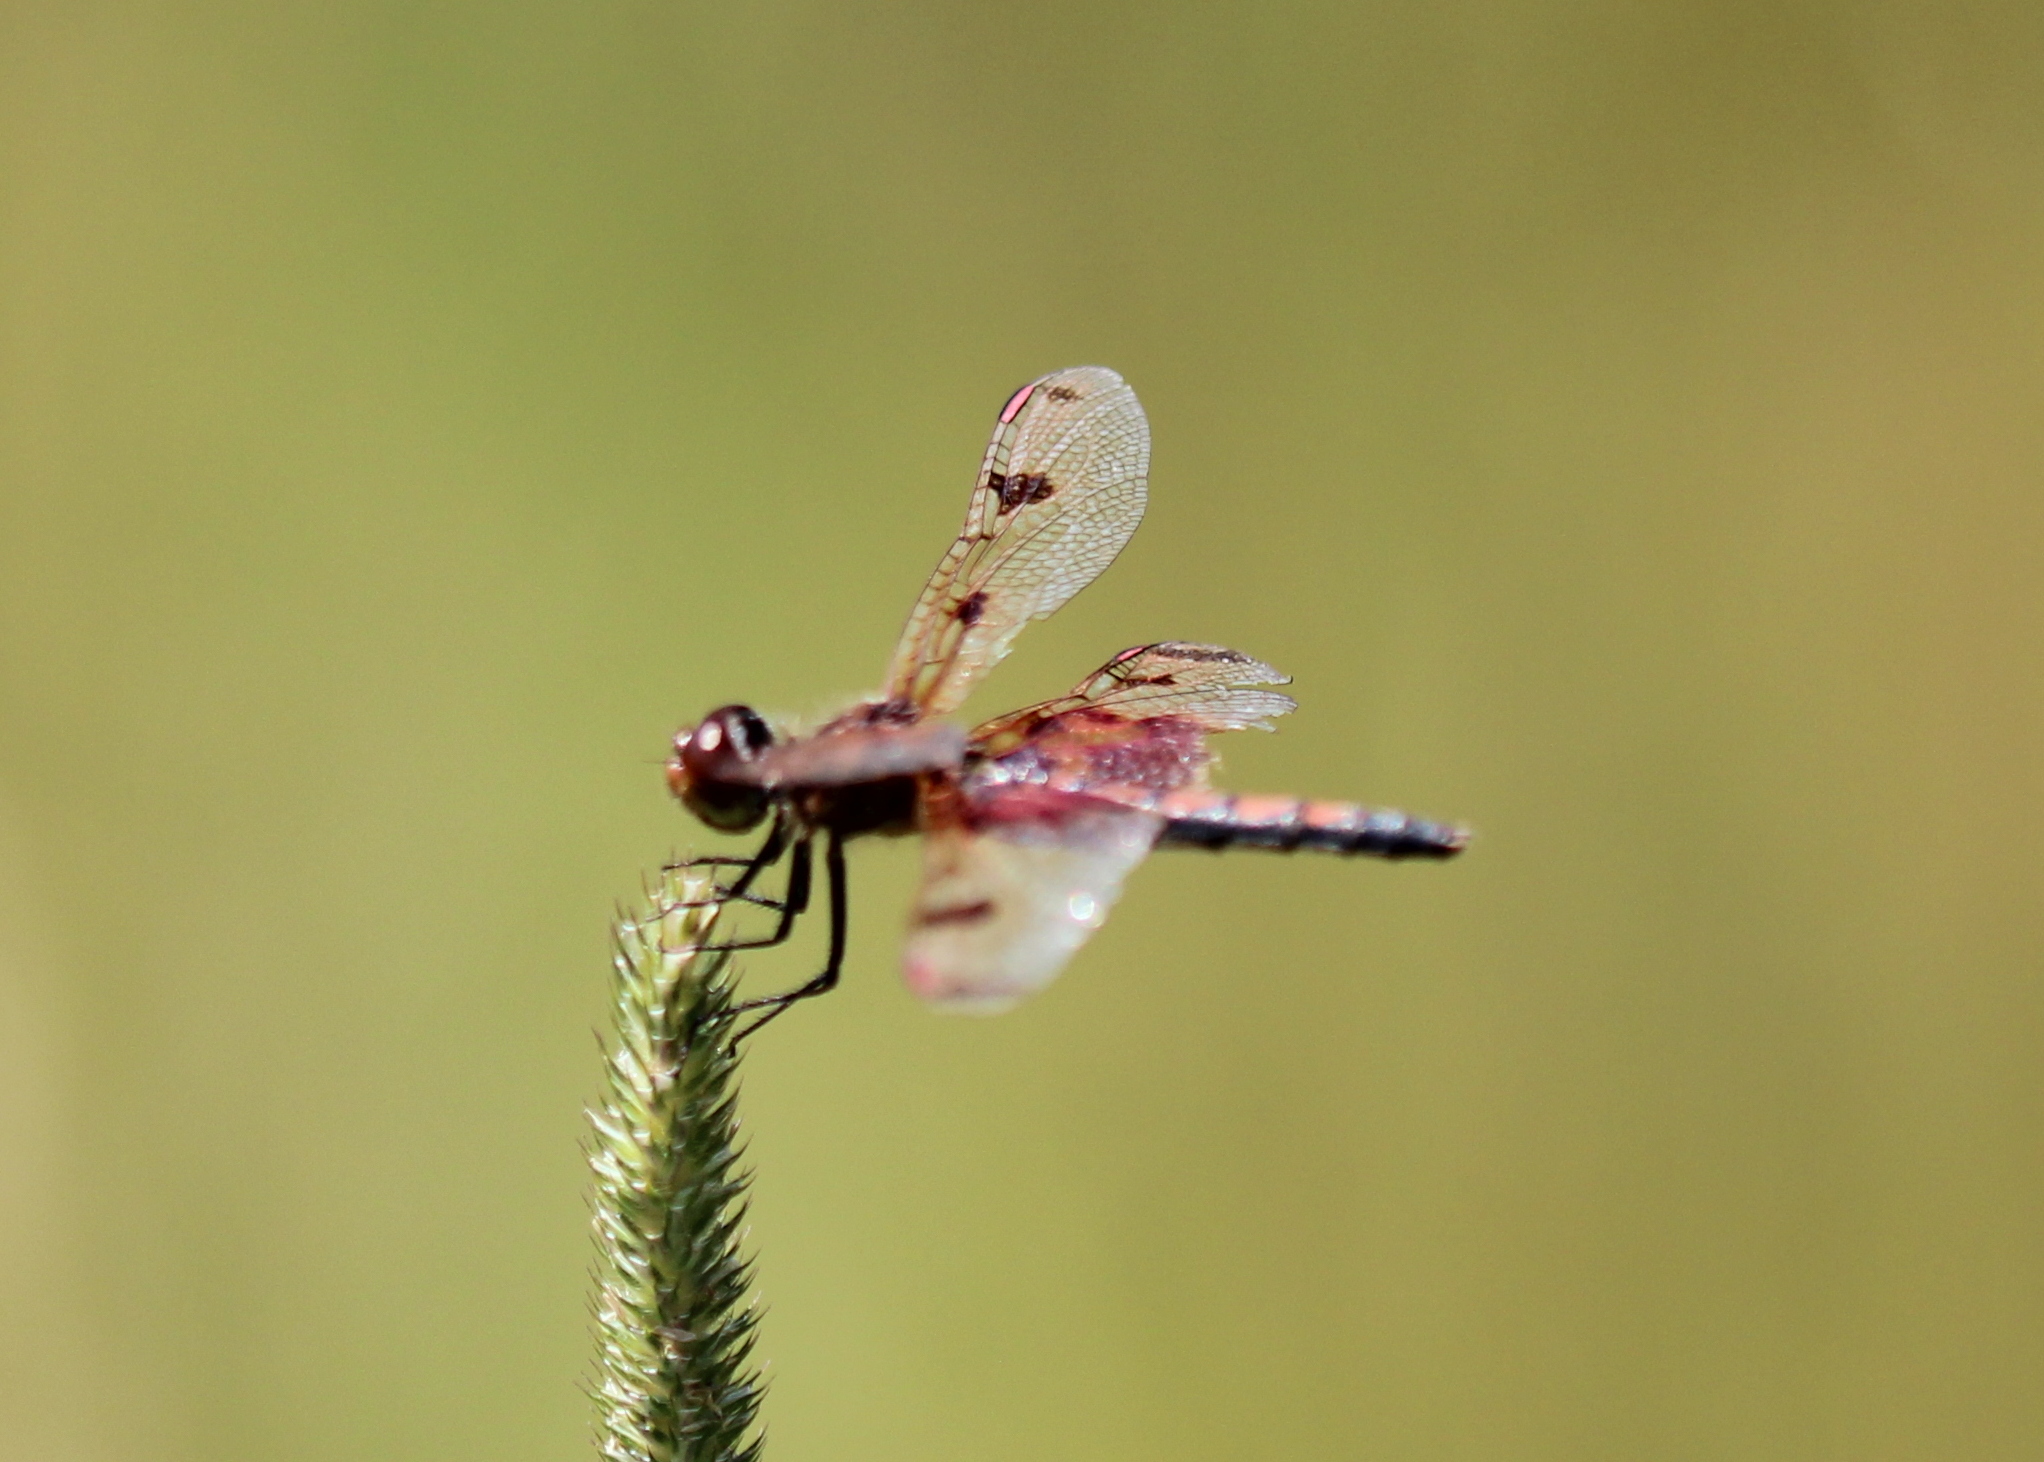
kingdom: Animalia
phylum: Arthropoda
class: Insecta
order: Odonata
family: Libellulidae
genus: Celithemis
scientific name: Celithemis elisa
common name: Calico pennant
